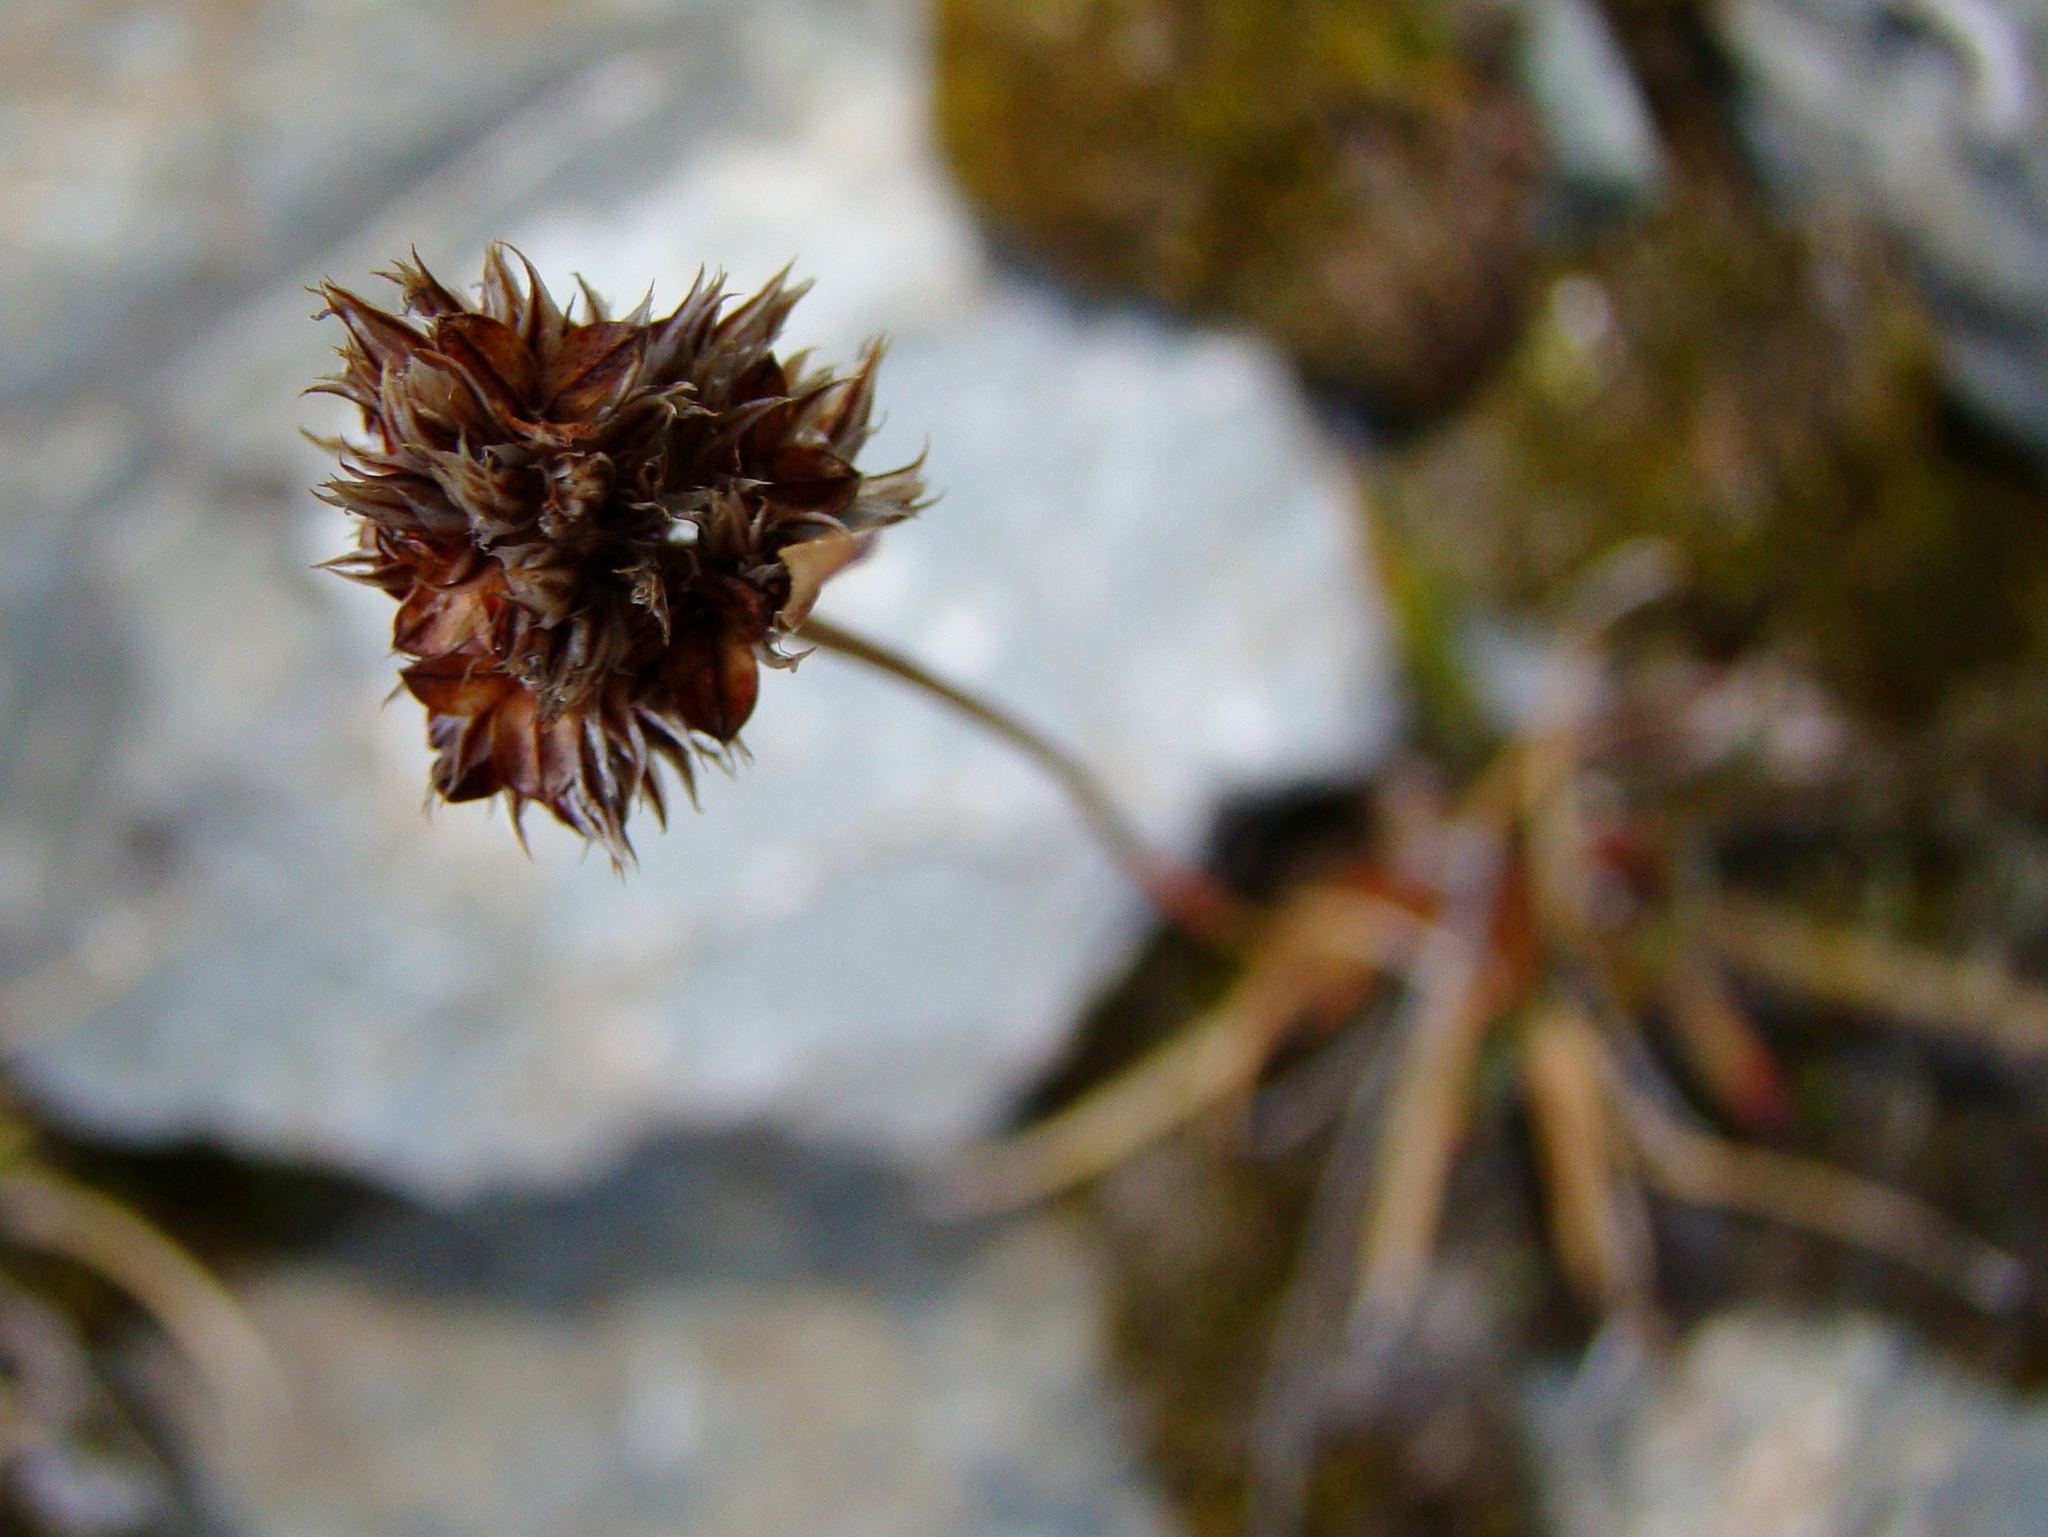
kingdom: Plantae
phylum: Tracheophyta
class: Liliopsida
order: Poales
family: Juncaceae
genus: Luzula
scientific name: Luzula rufa
